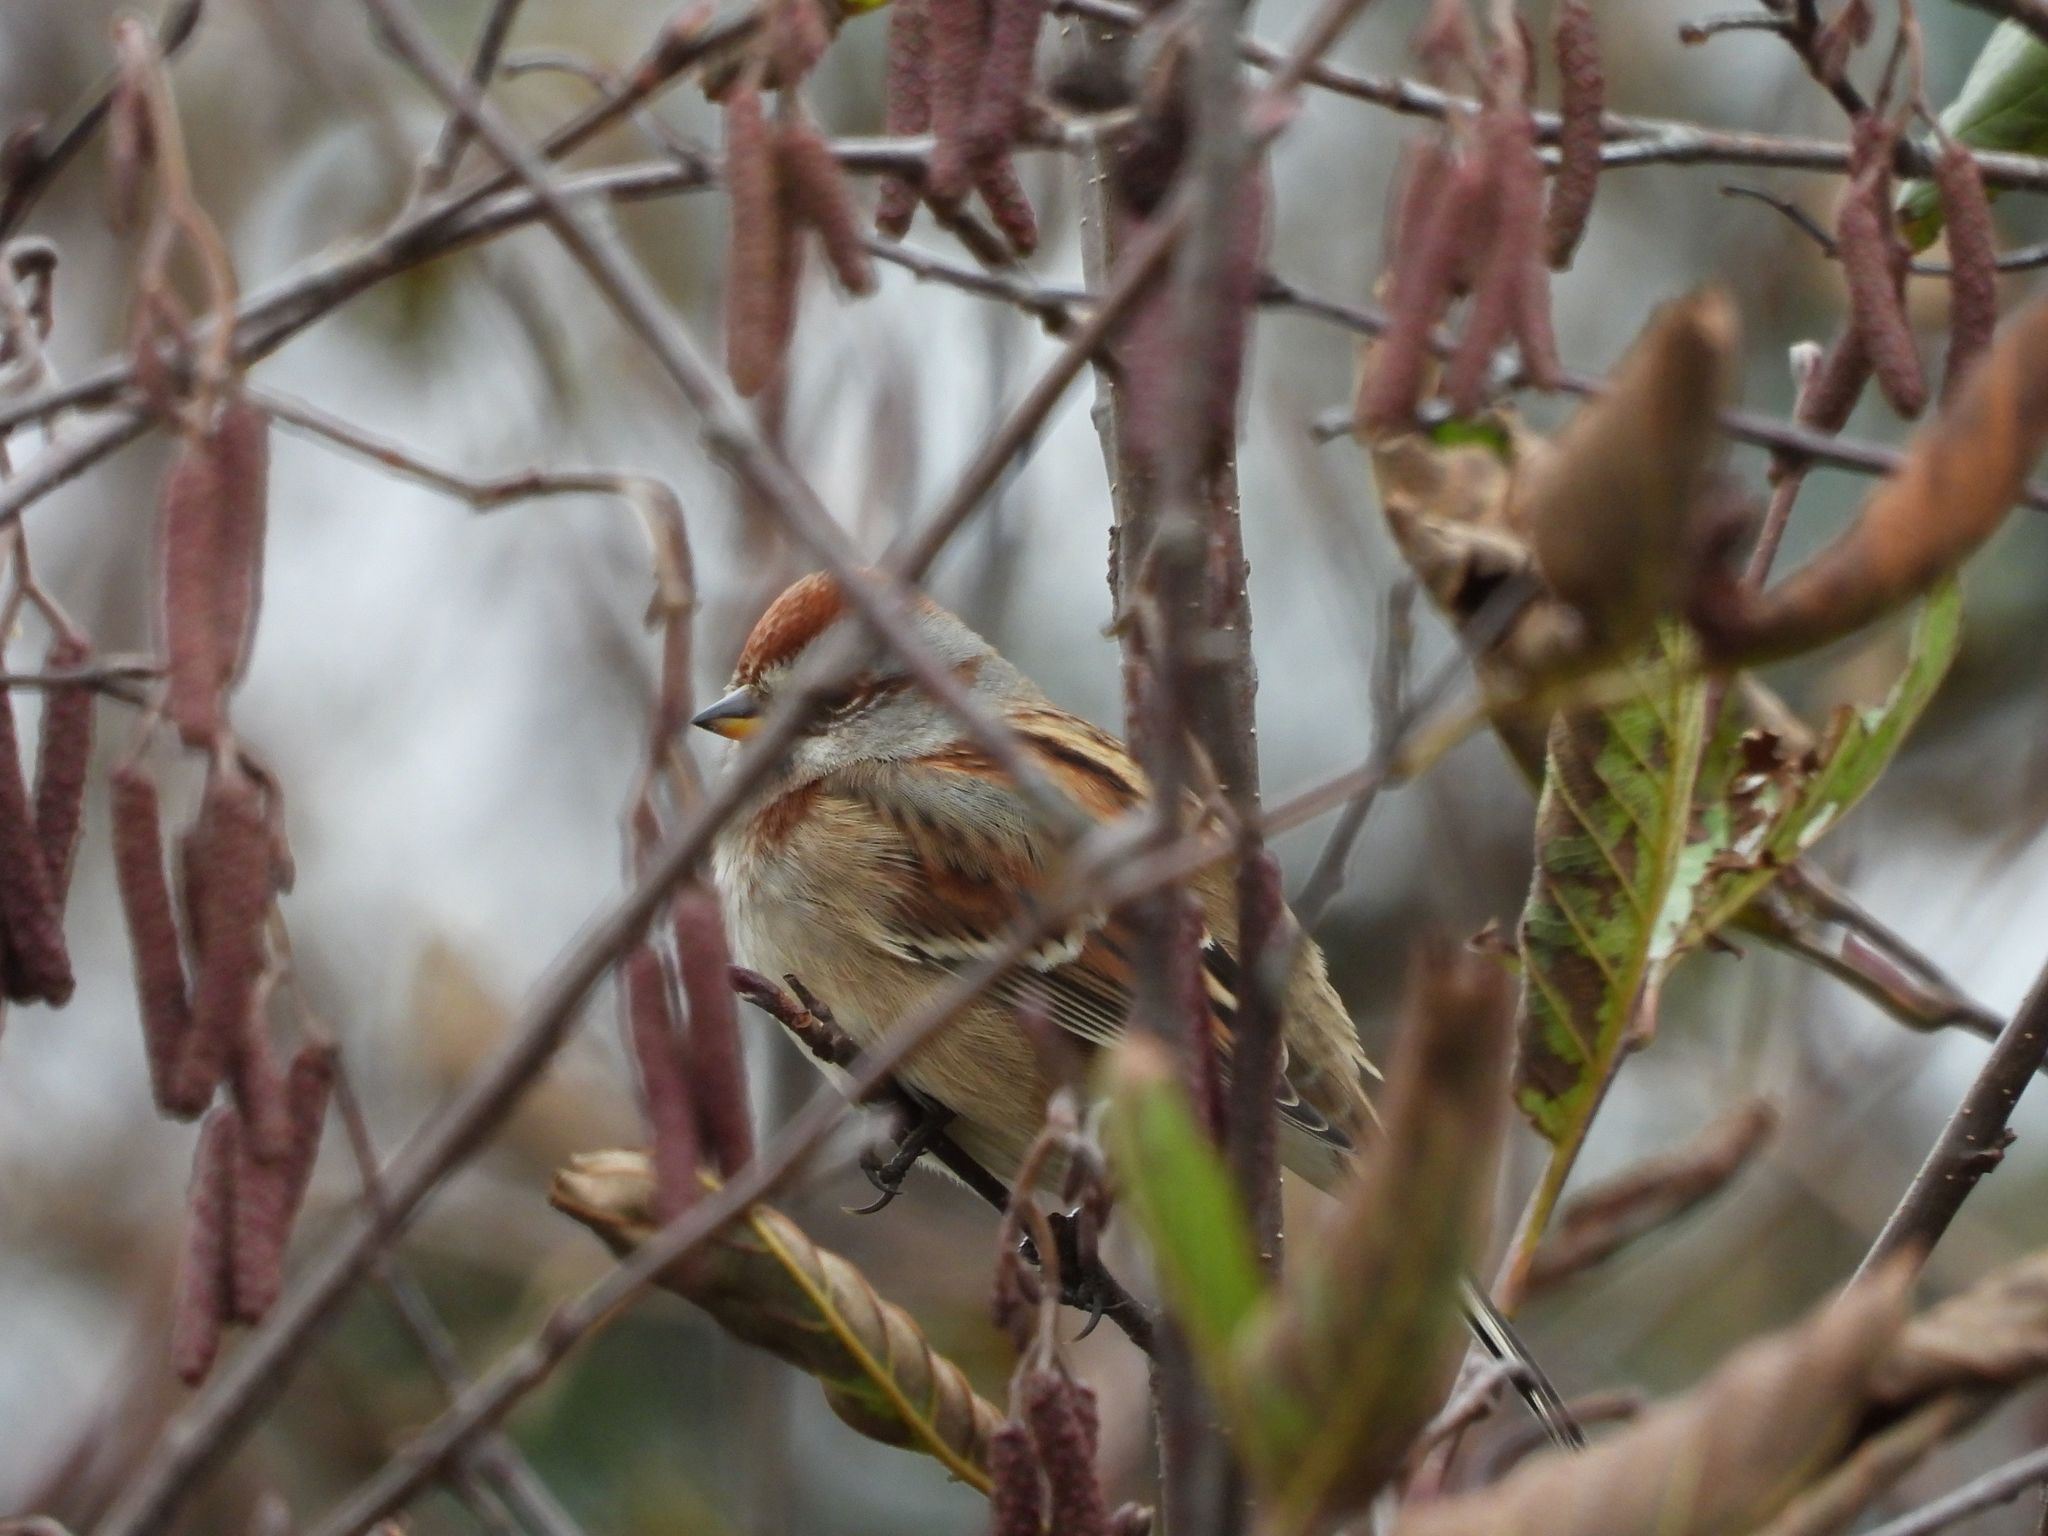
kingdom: Animalia
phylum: Chordata
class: Aves
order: Passeriformes
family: Passerellidae
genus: Spizelloides
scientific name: Spizelloides arborea
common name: American tree sparrow
